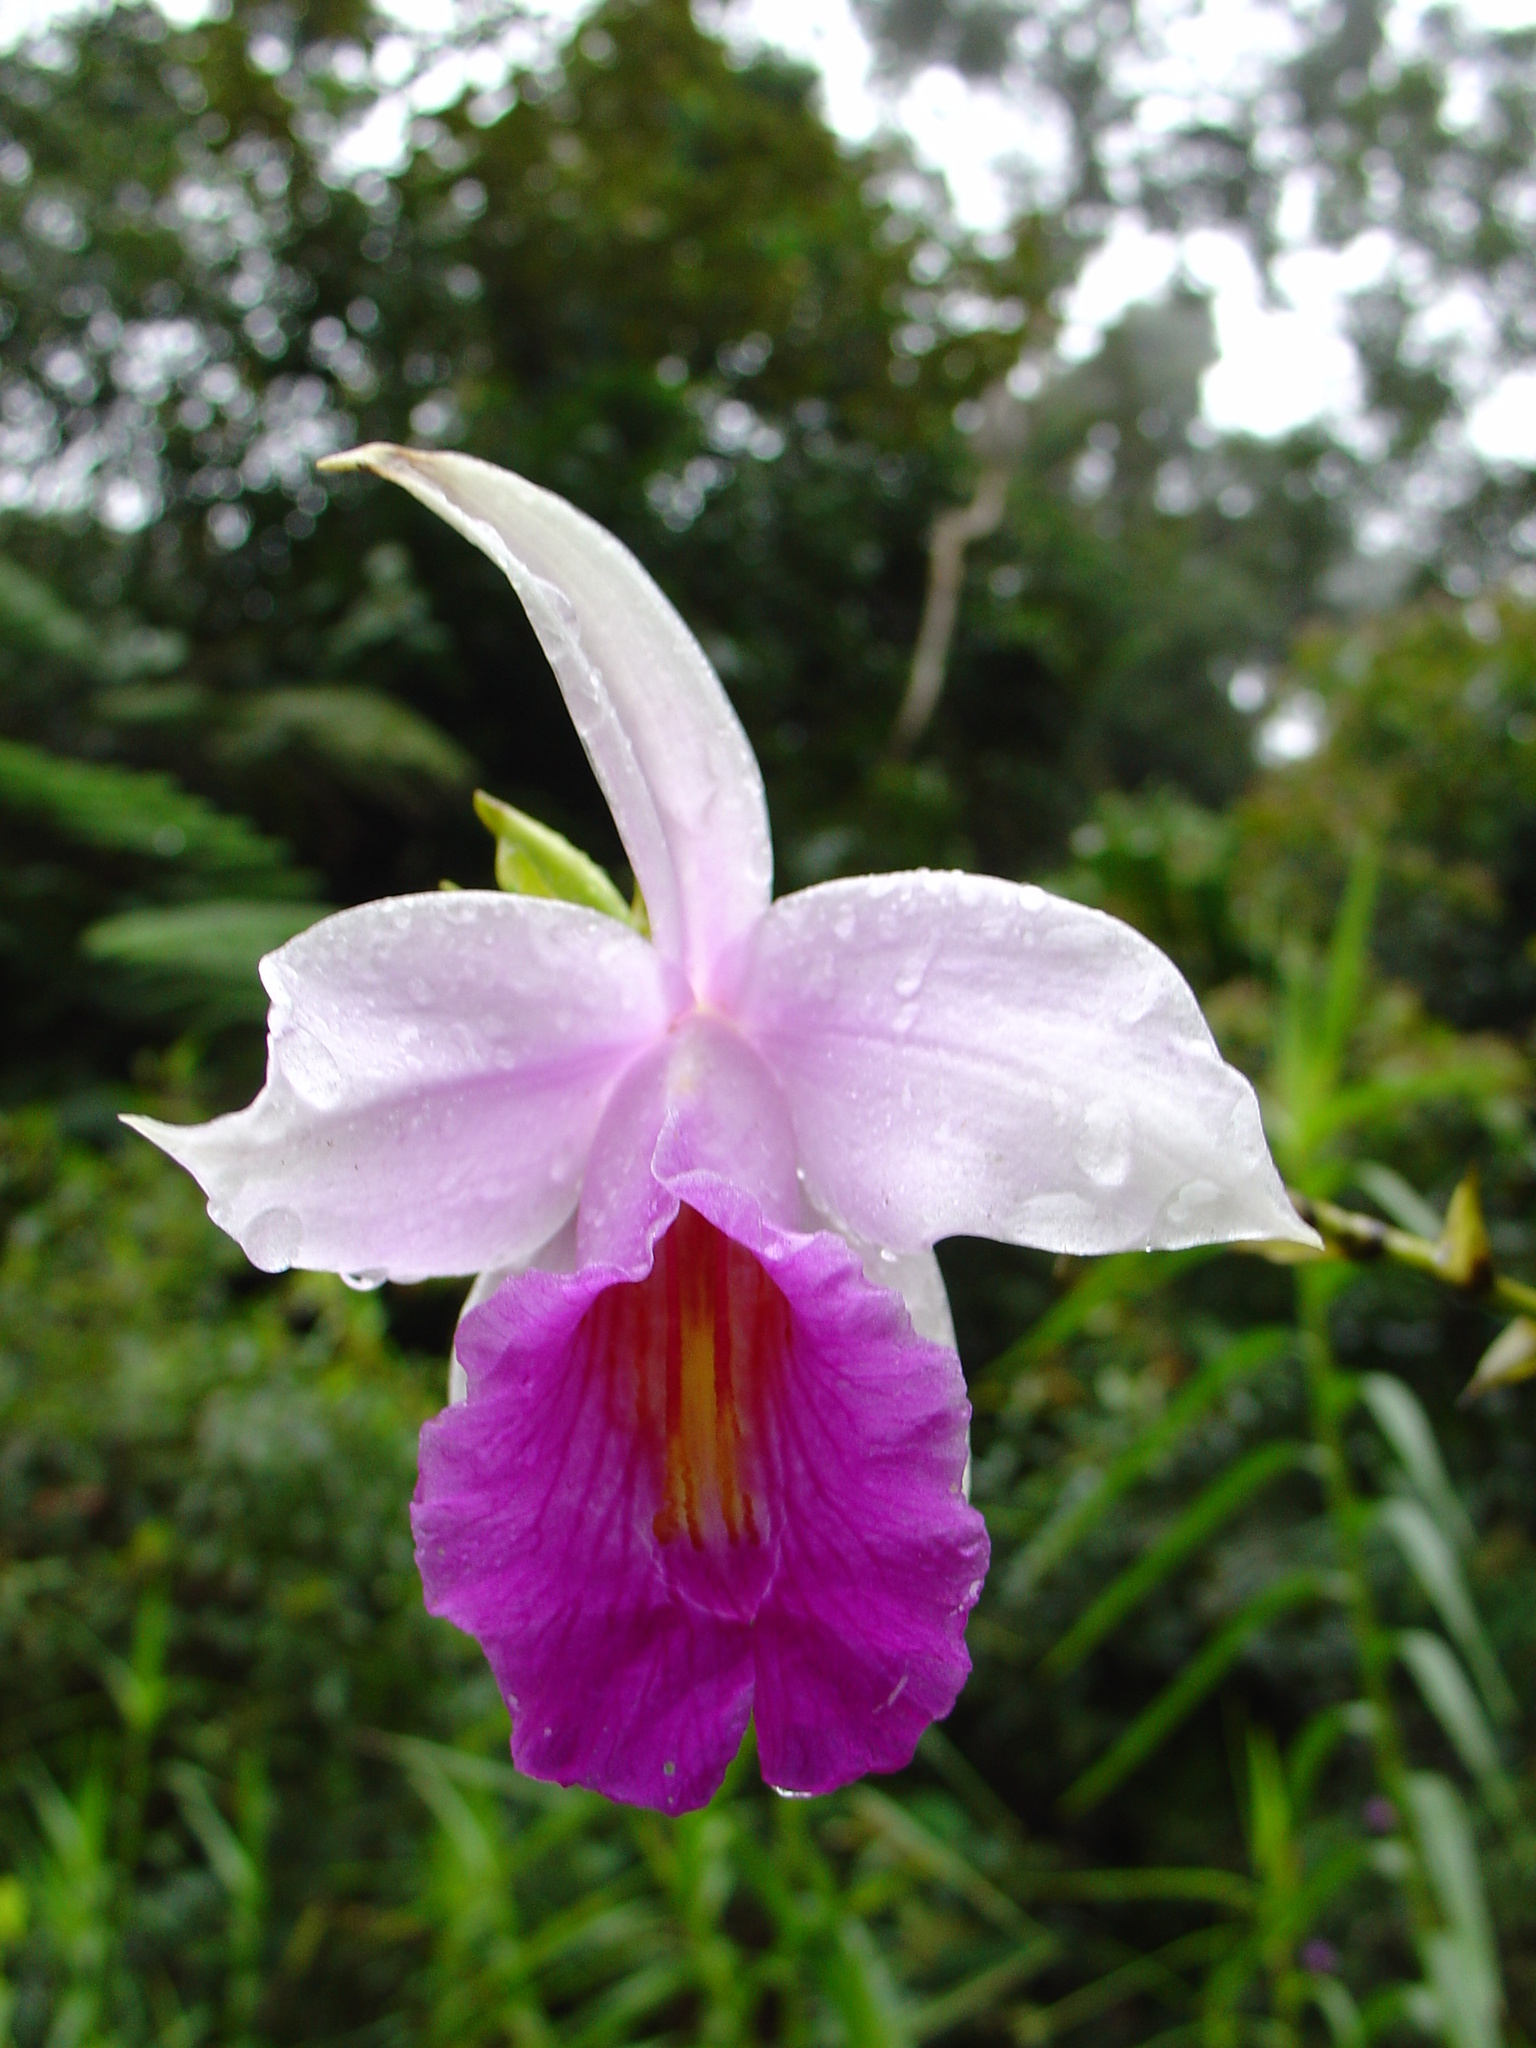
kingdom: Plantae
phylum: Tracheophyta
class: Liliopsida
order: Asparagales
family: Orchidaceae
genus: Arundina
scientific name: Arundina graminifolia
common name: Bamboo orchid
